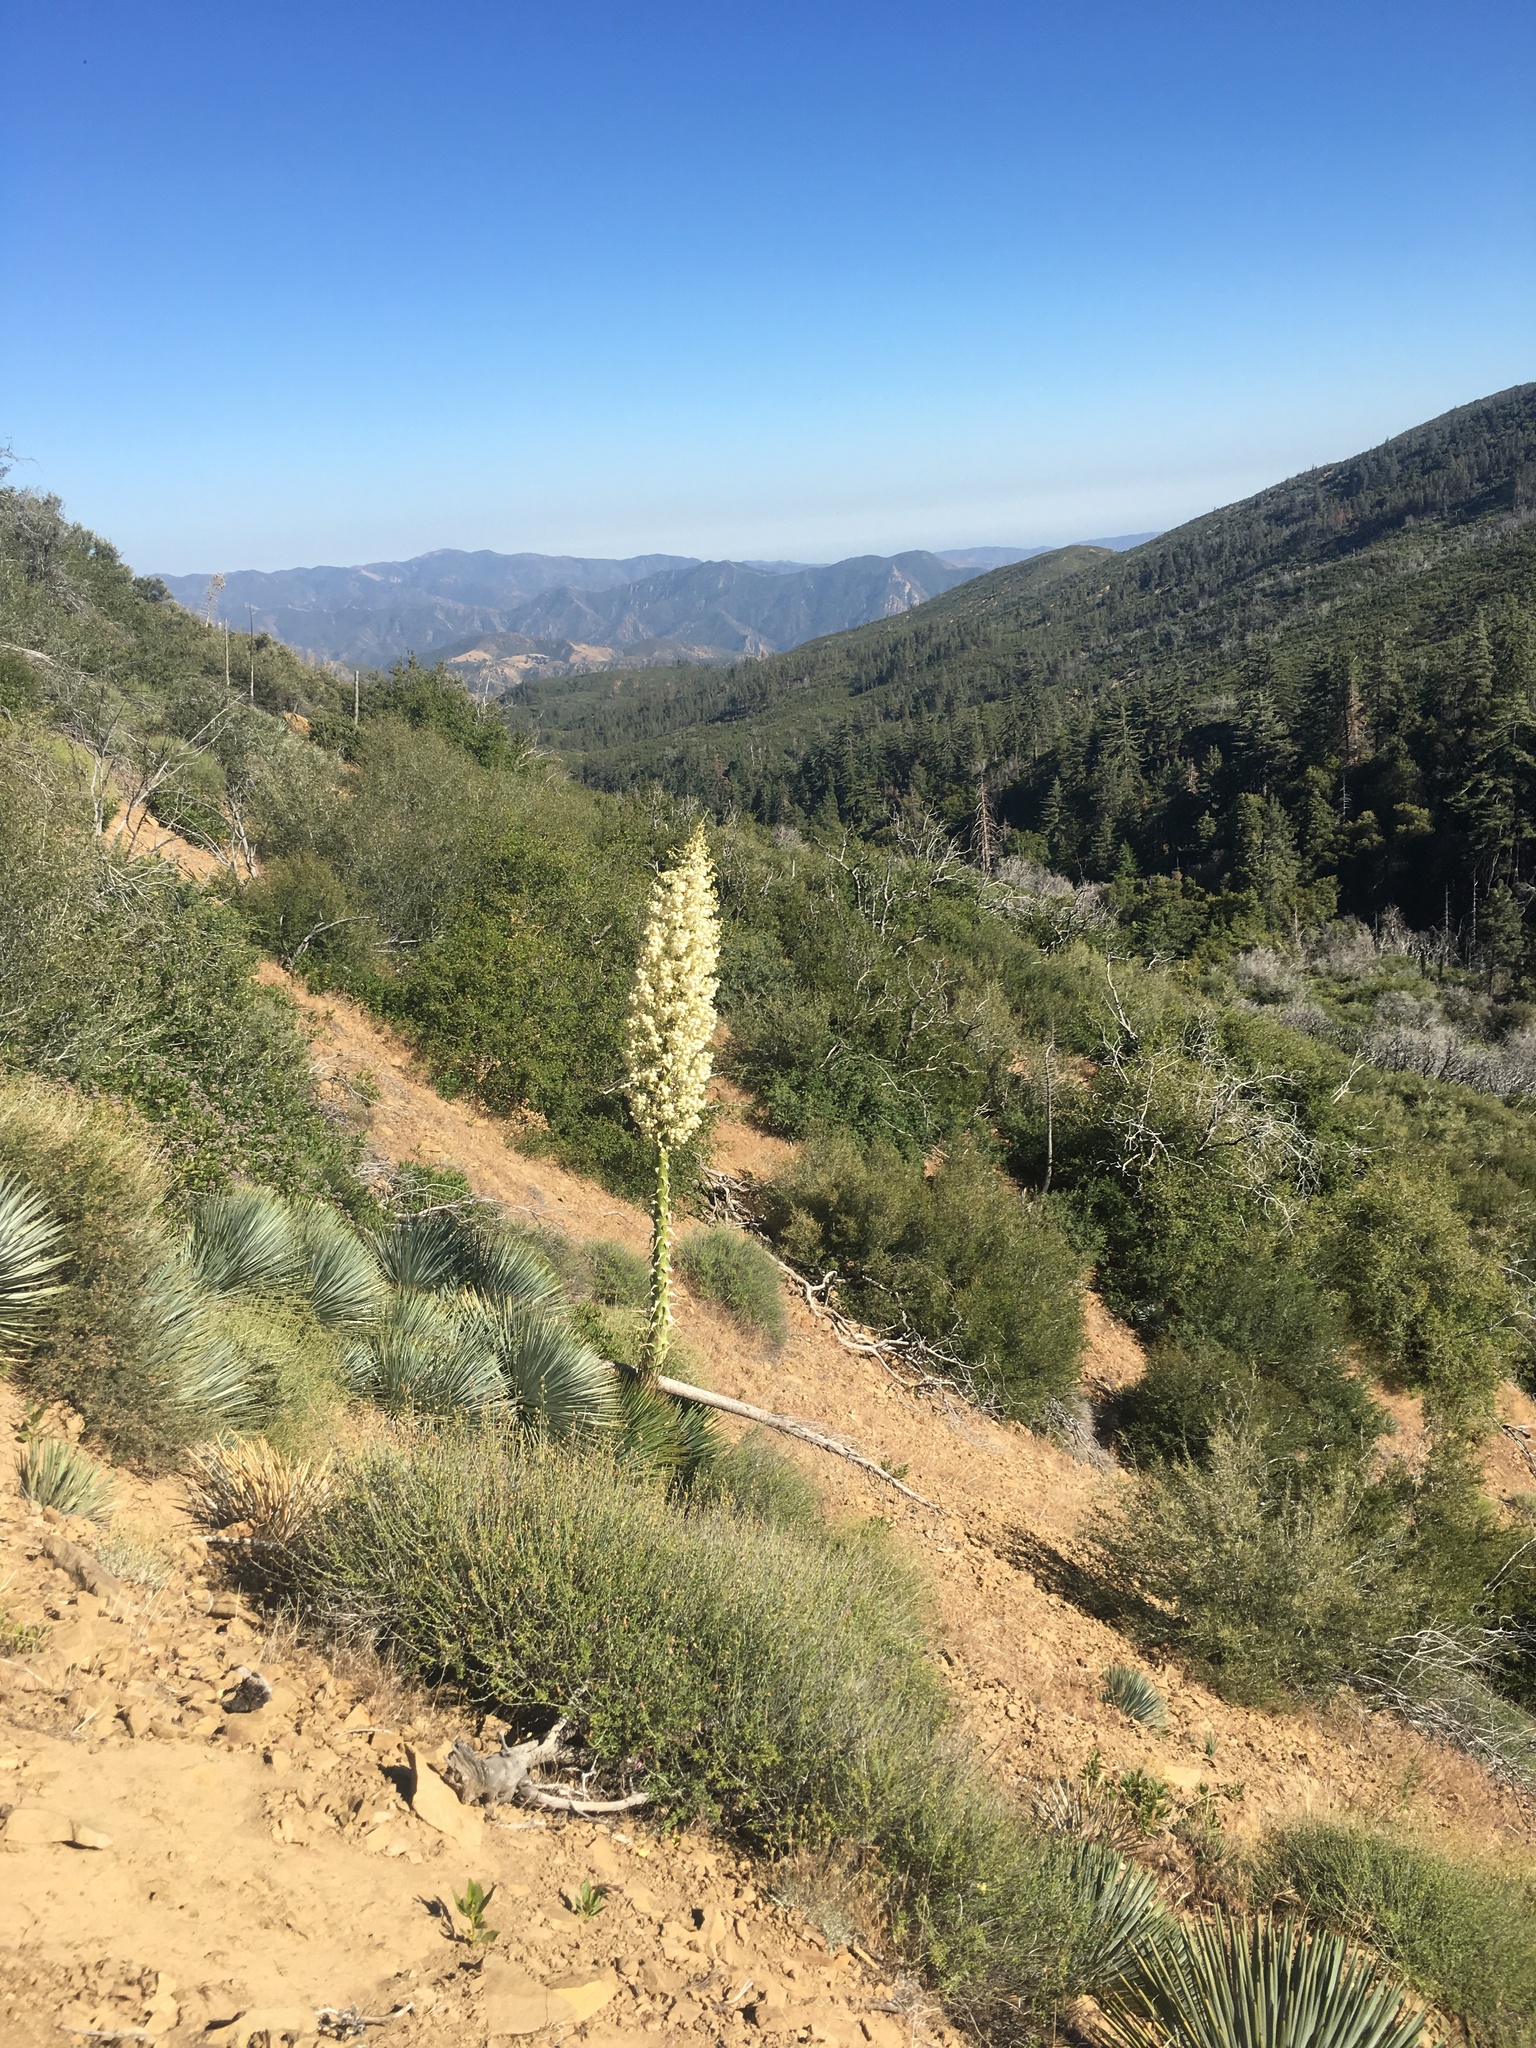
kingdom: Plantae
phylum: Tracheophyta
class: Liliopsida
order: Asparagales
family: Asparagaceae
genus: Hesperoyucca
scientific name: Hesperoyucca whipplei
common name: Our lord's-candle
